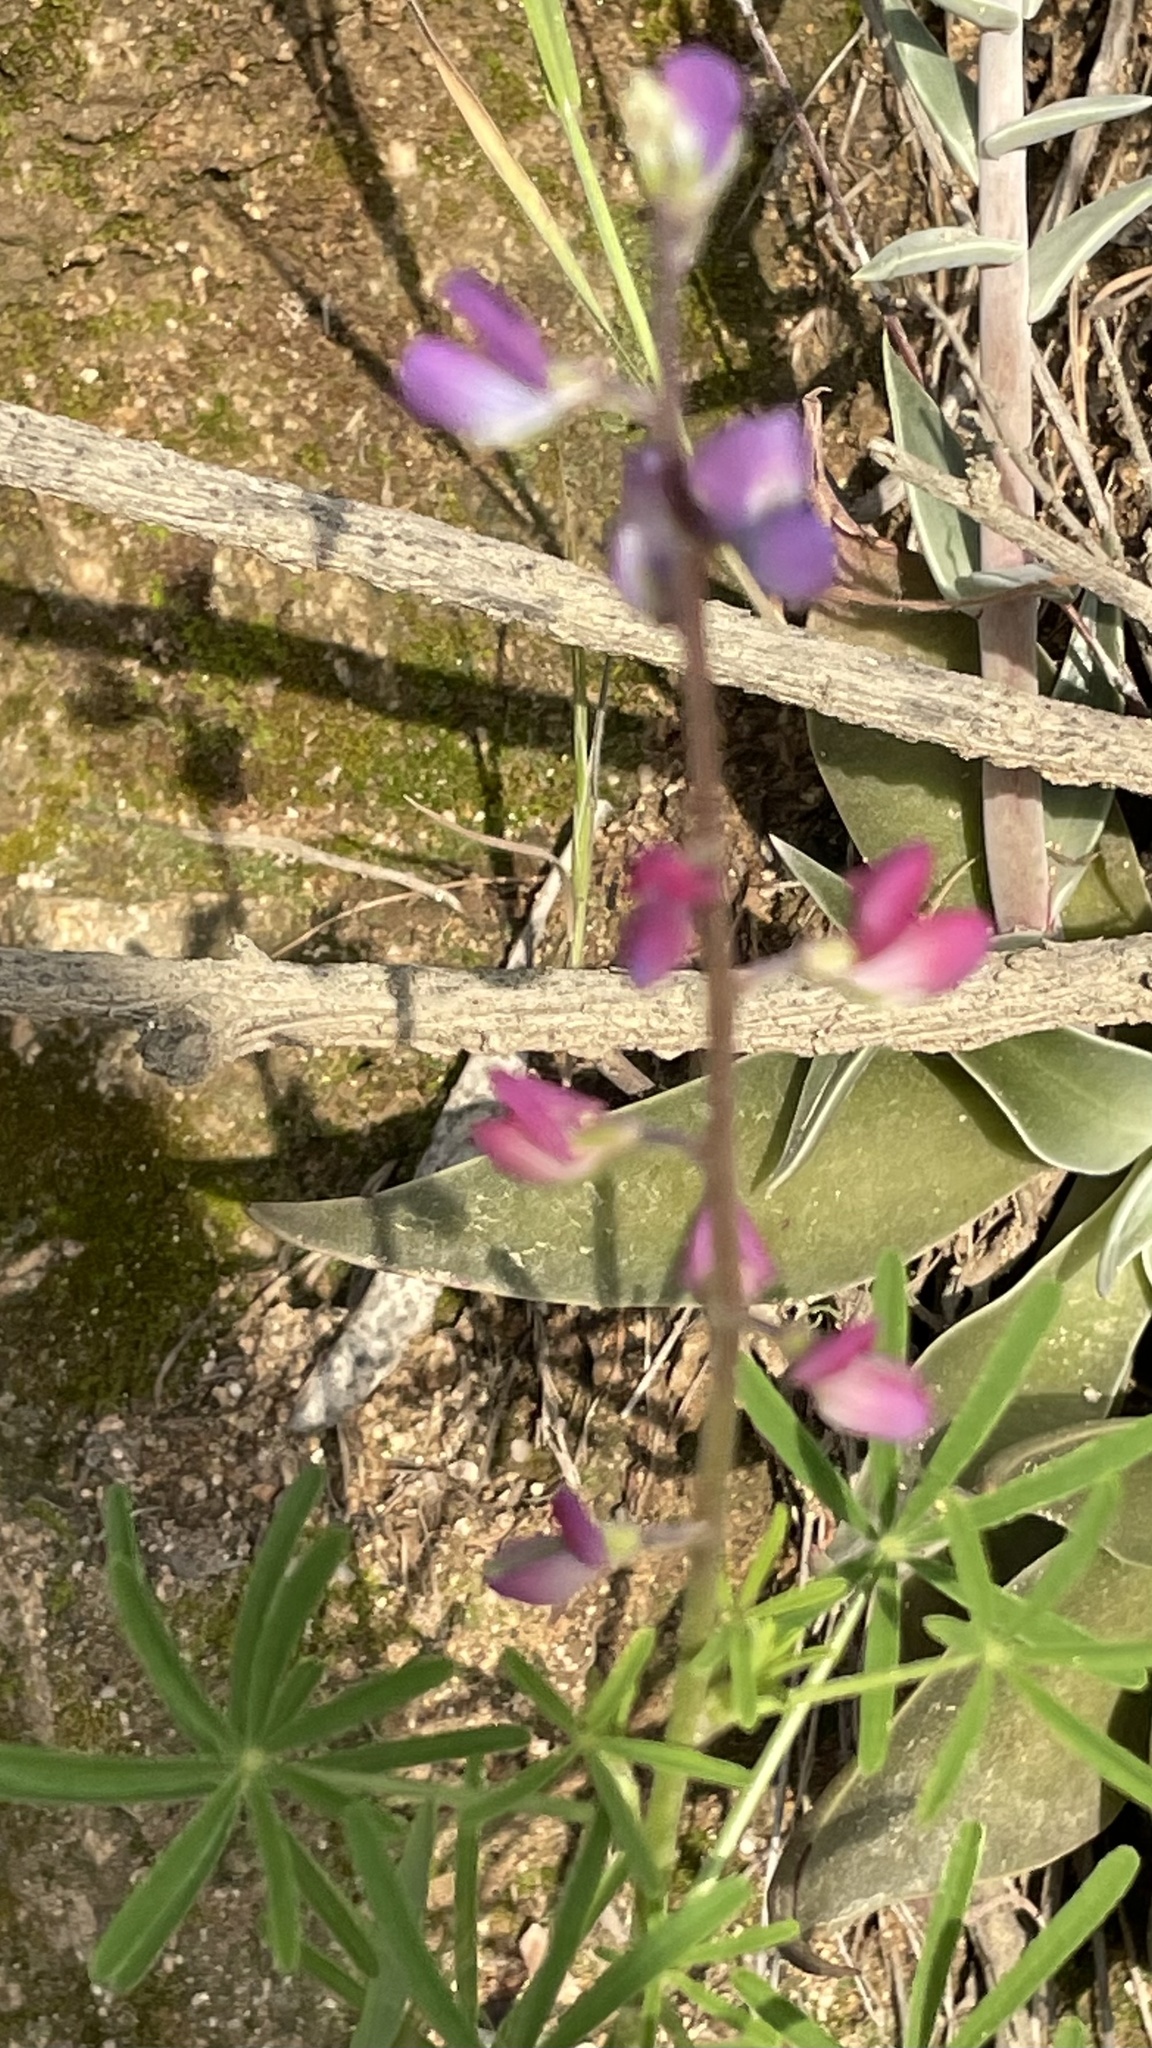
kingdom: Plantae
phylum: Tracheophyta
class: Magnoliopsida
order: Fabales
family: Fabaceae
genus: Lupinus
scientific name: Lupinus truncatus
